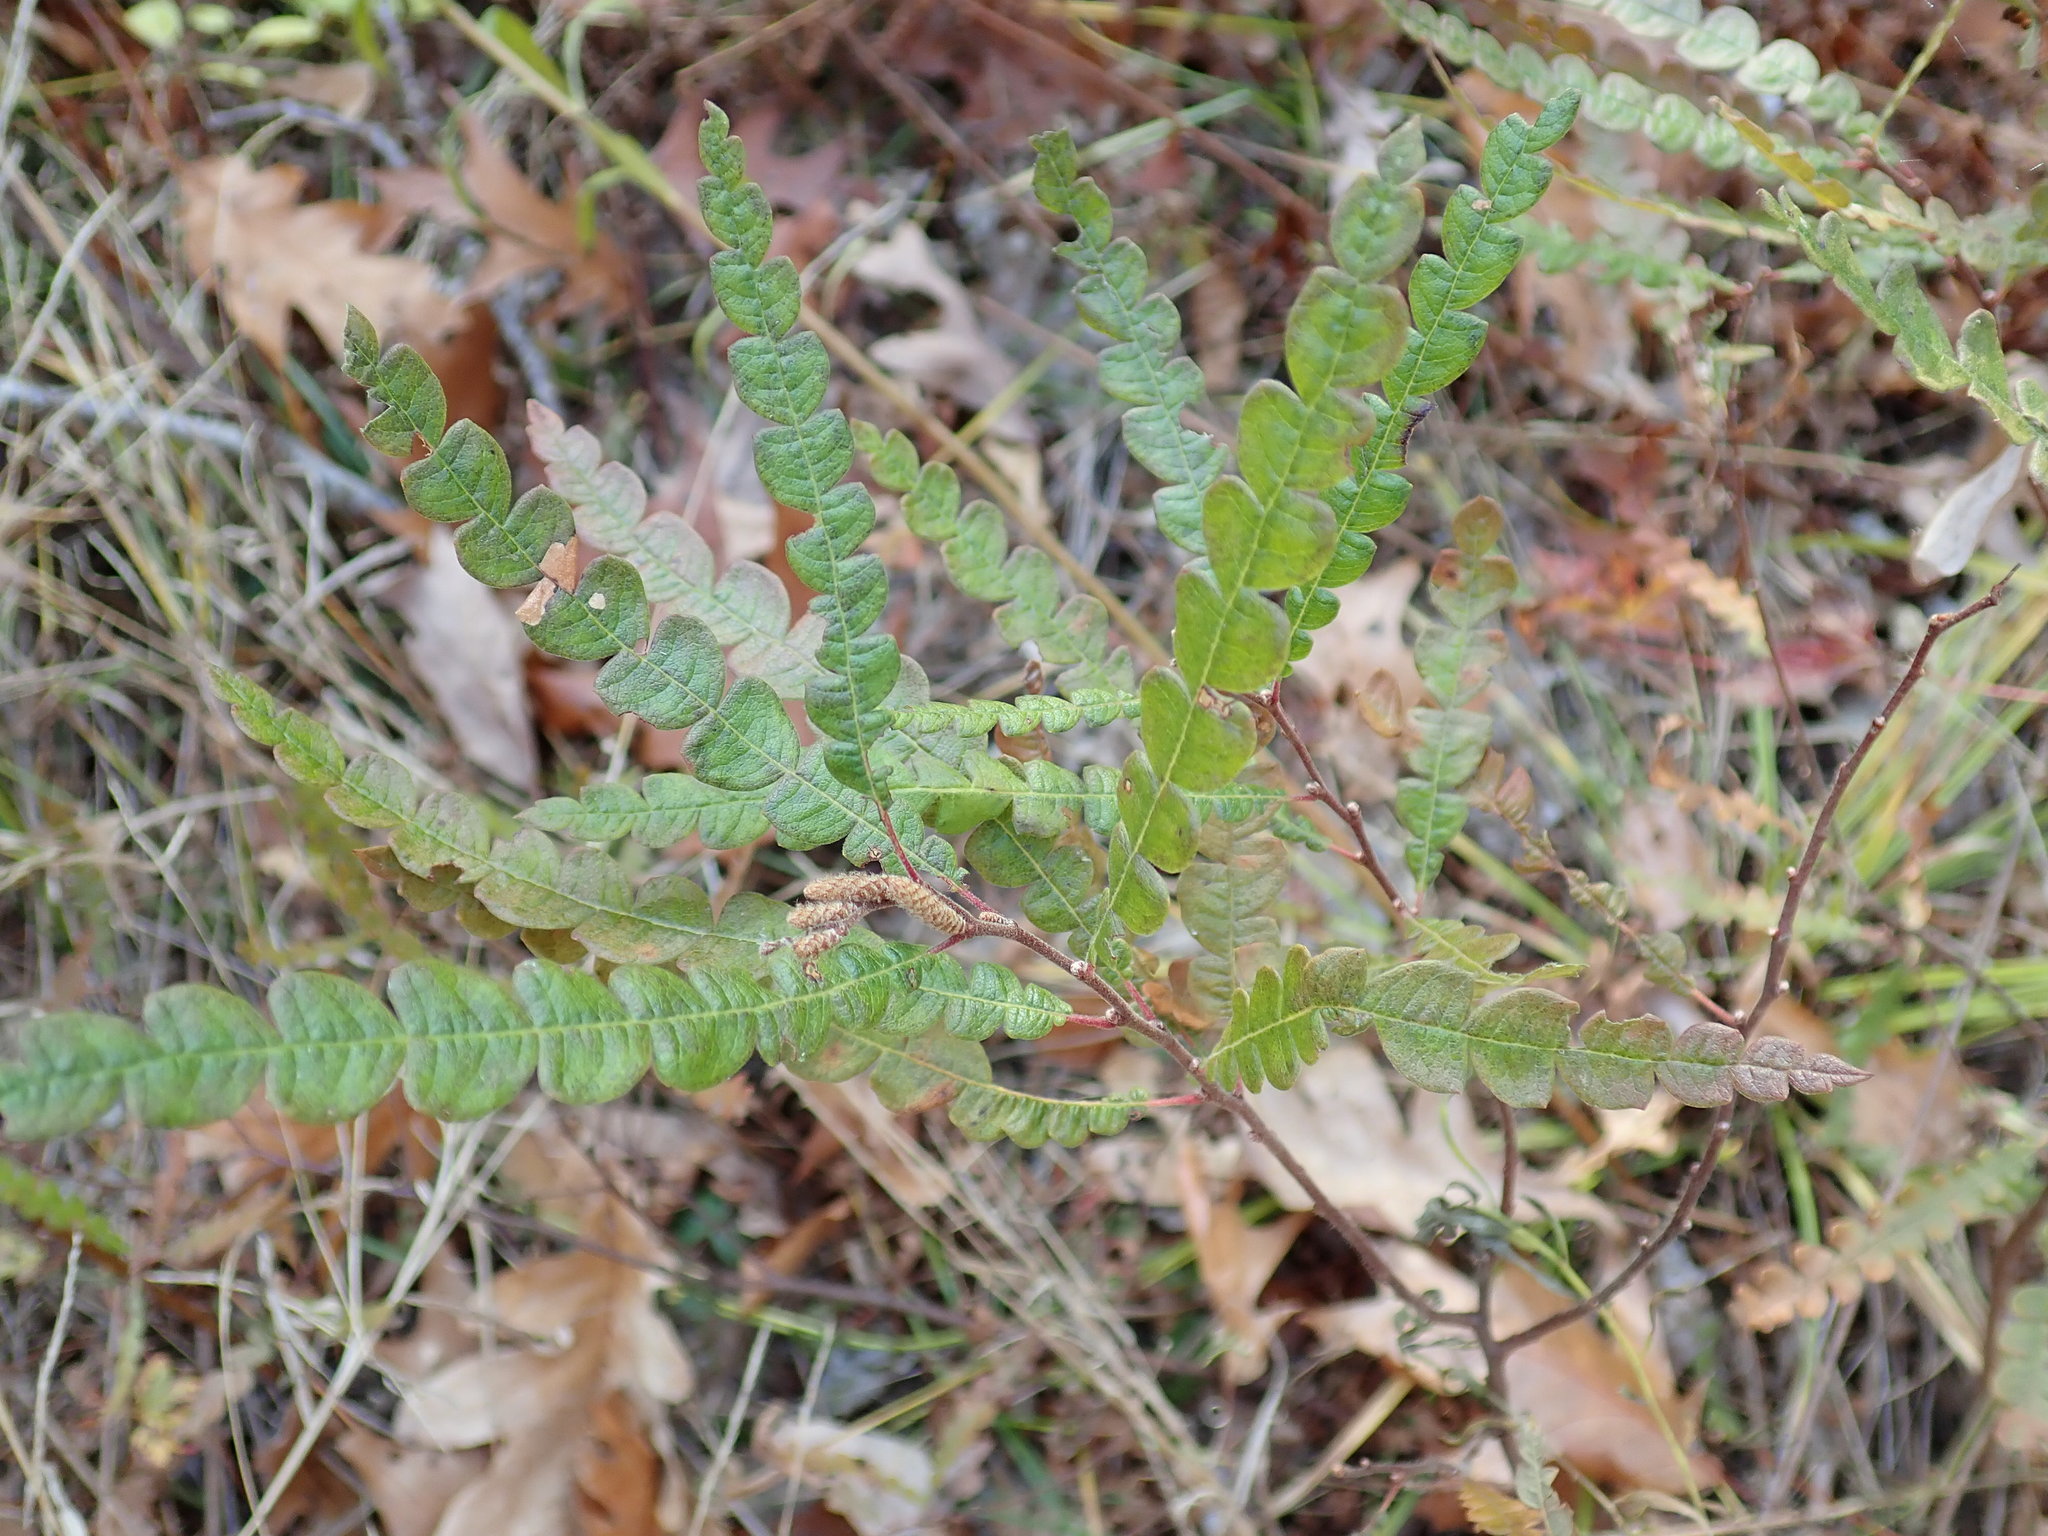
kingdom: Plantae
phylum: Tracheophyta
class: Magnoliopsida
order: Fagales
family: Myricaceae
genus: Comptonia
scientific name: Comptonia peregrina
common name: Sweet-fern
